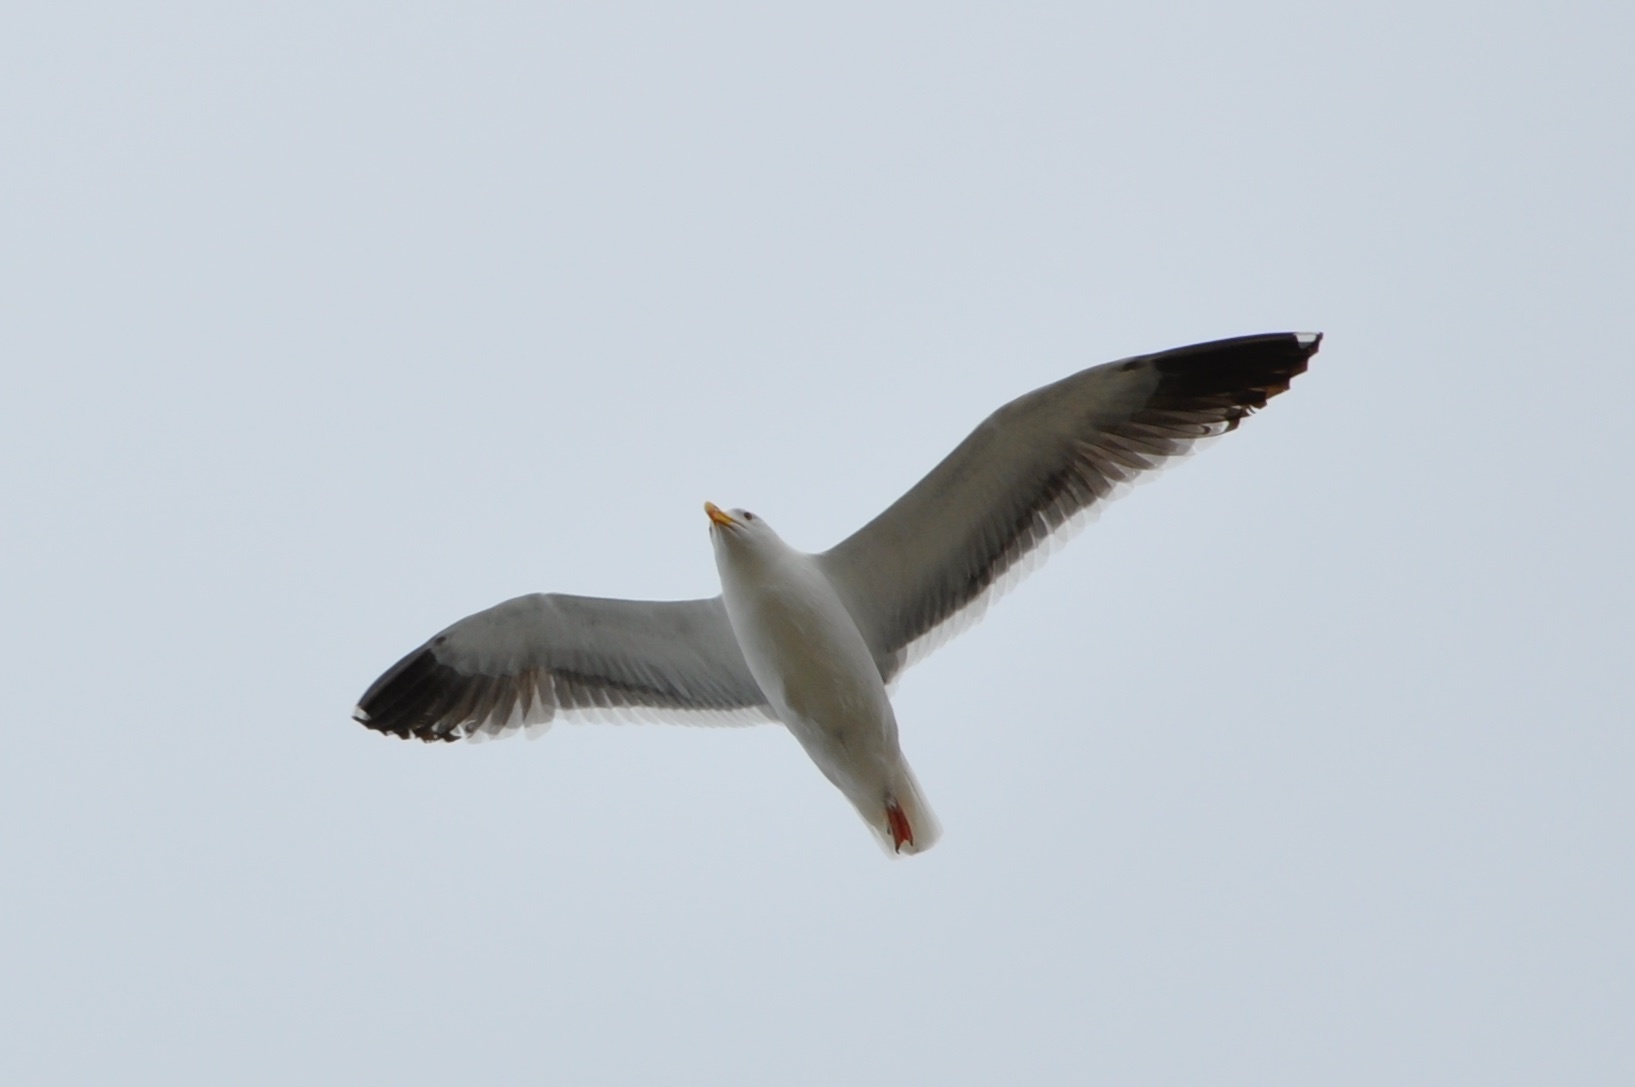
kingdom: Animalia
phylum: Chordata
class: Aves
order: Charadriiformes
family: Laridae
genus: Larus
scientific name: Larus occidentalis
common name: Western gull
